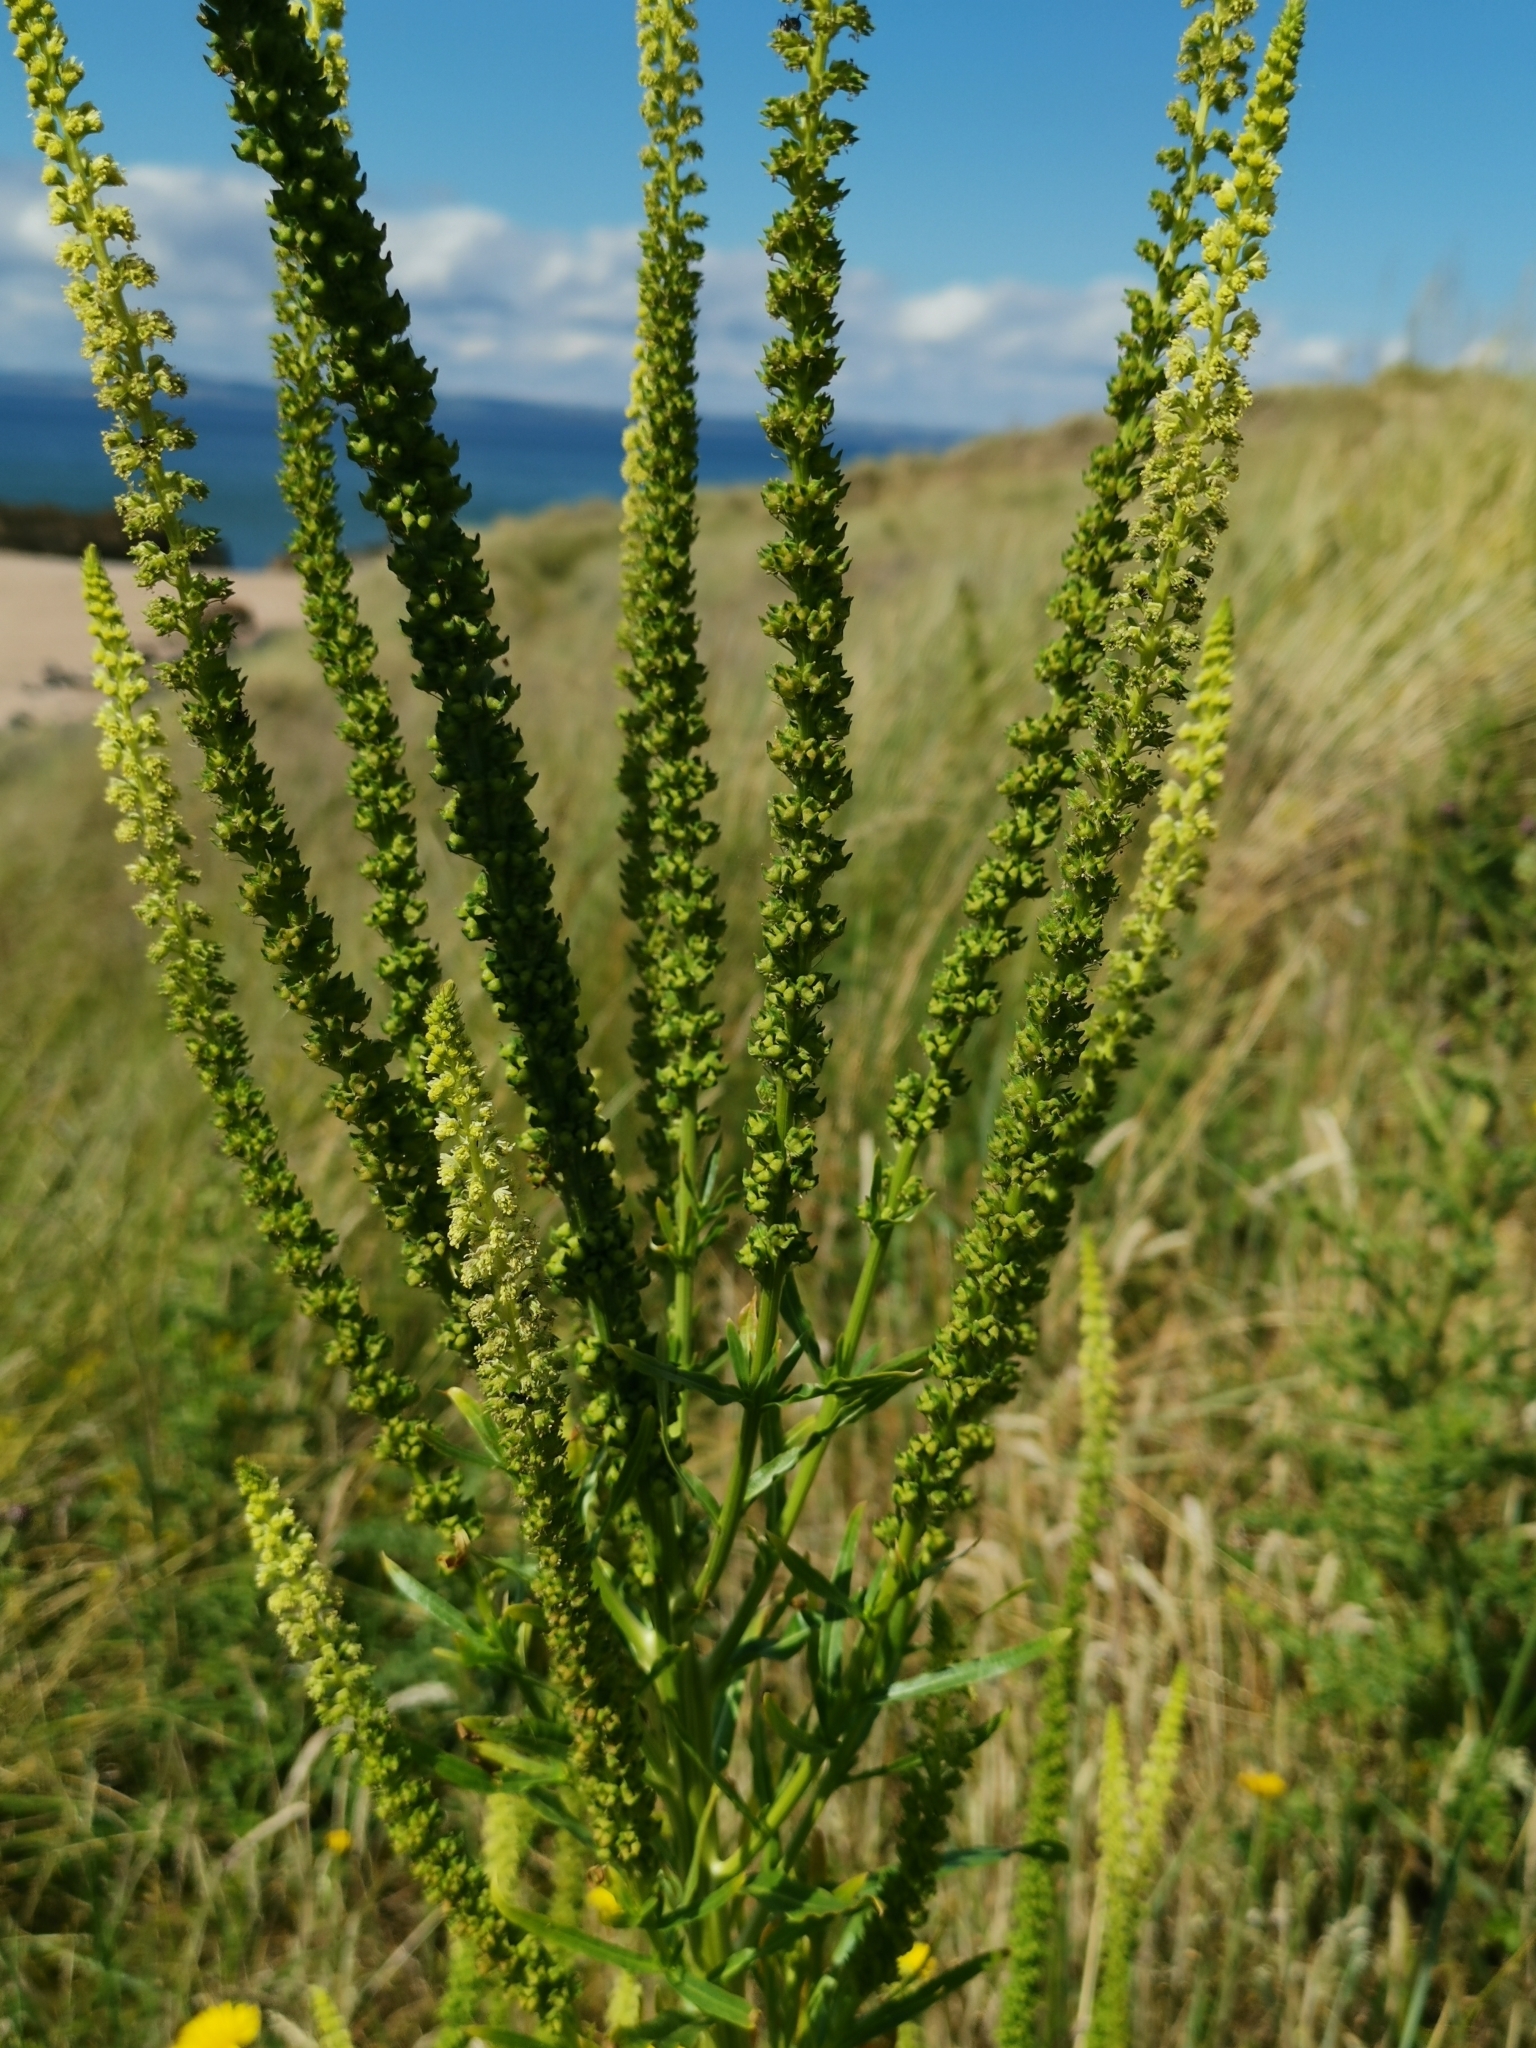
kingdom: Plantae
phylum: Tracheophyta
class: Magnoliopsida
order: Brassicales
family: Resedaceae
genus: Reseda
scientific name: Reseda luteola
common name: Weld
